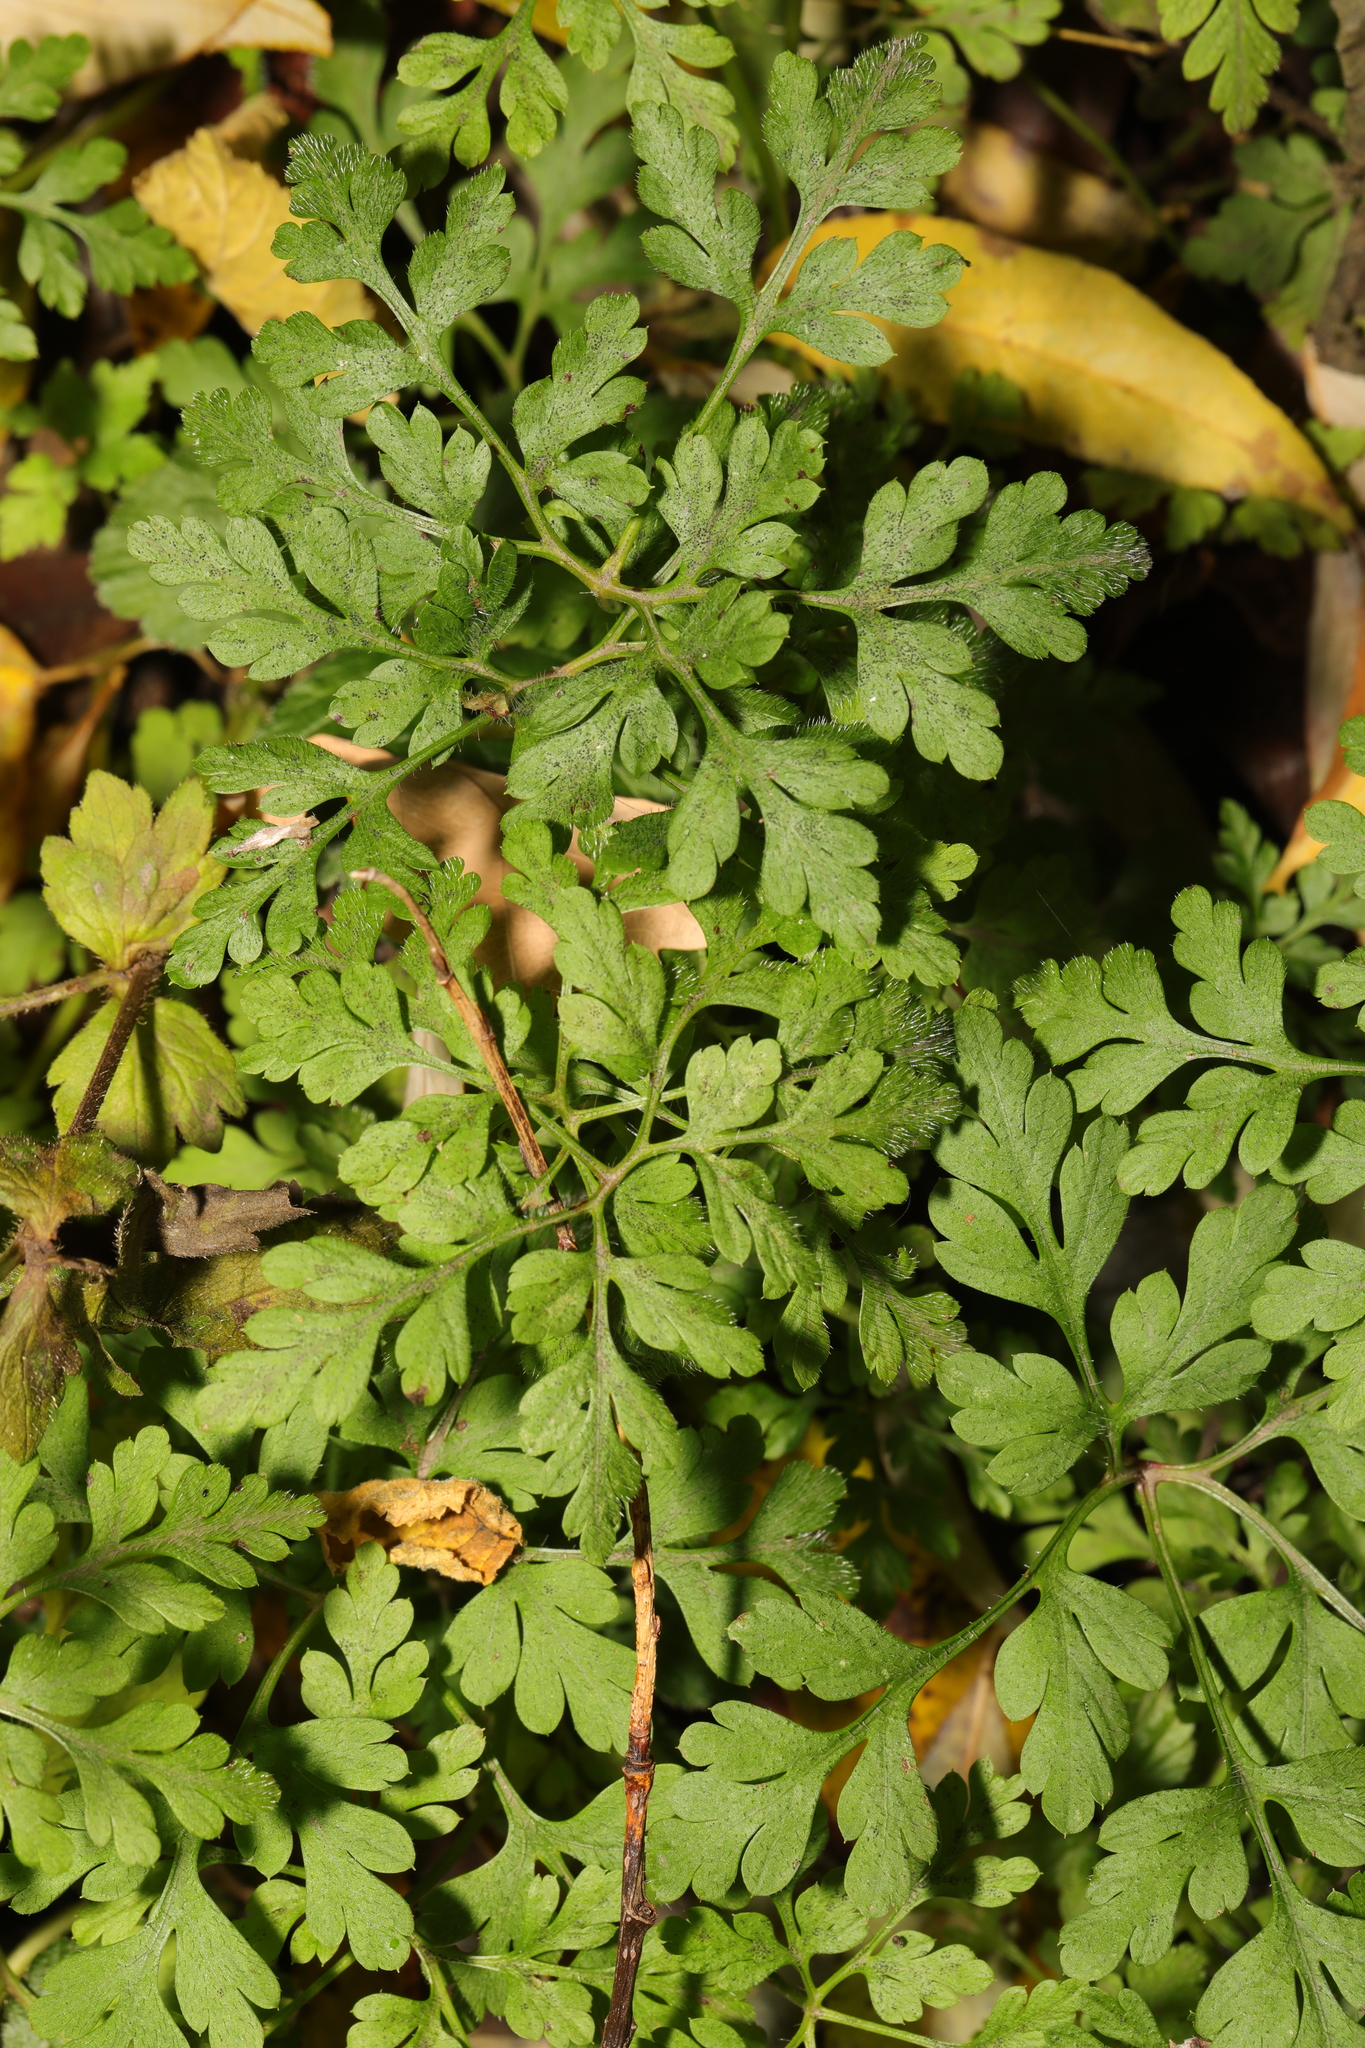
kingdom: Plantae
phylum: Tracheophyta
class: Magnoliopsida
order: Geraniales
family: Geraniaceae
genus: Geranium
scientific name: Geranium robertianum
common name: Herb-robert
